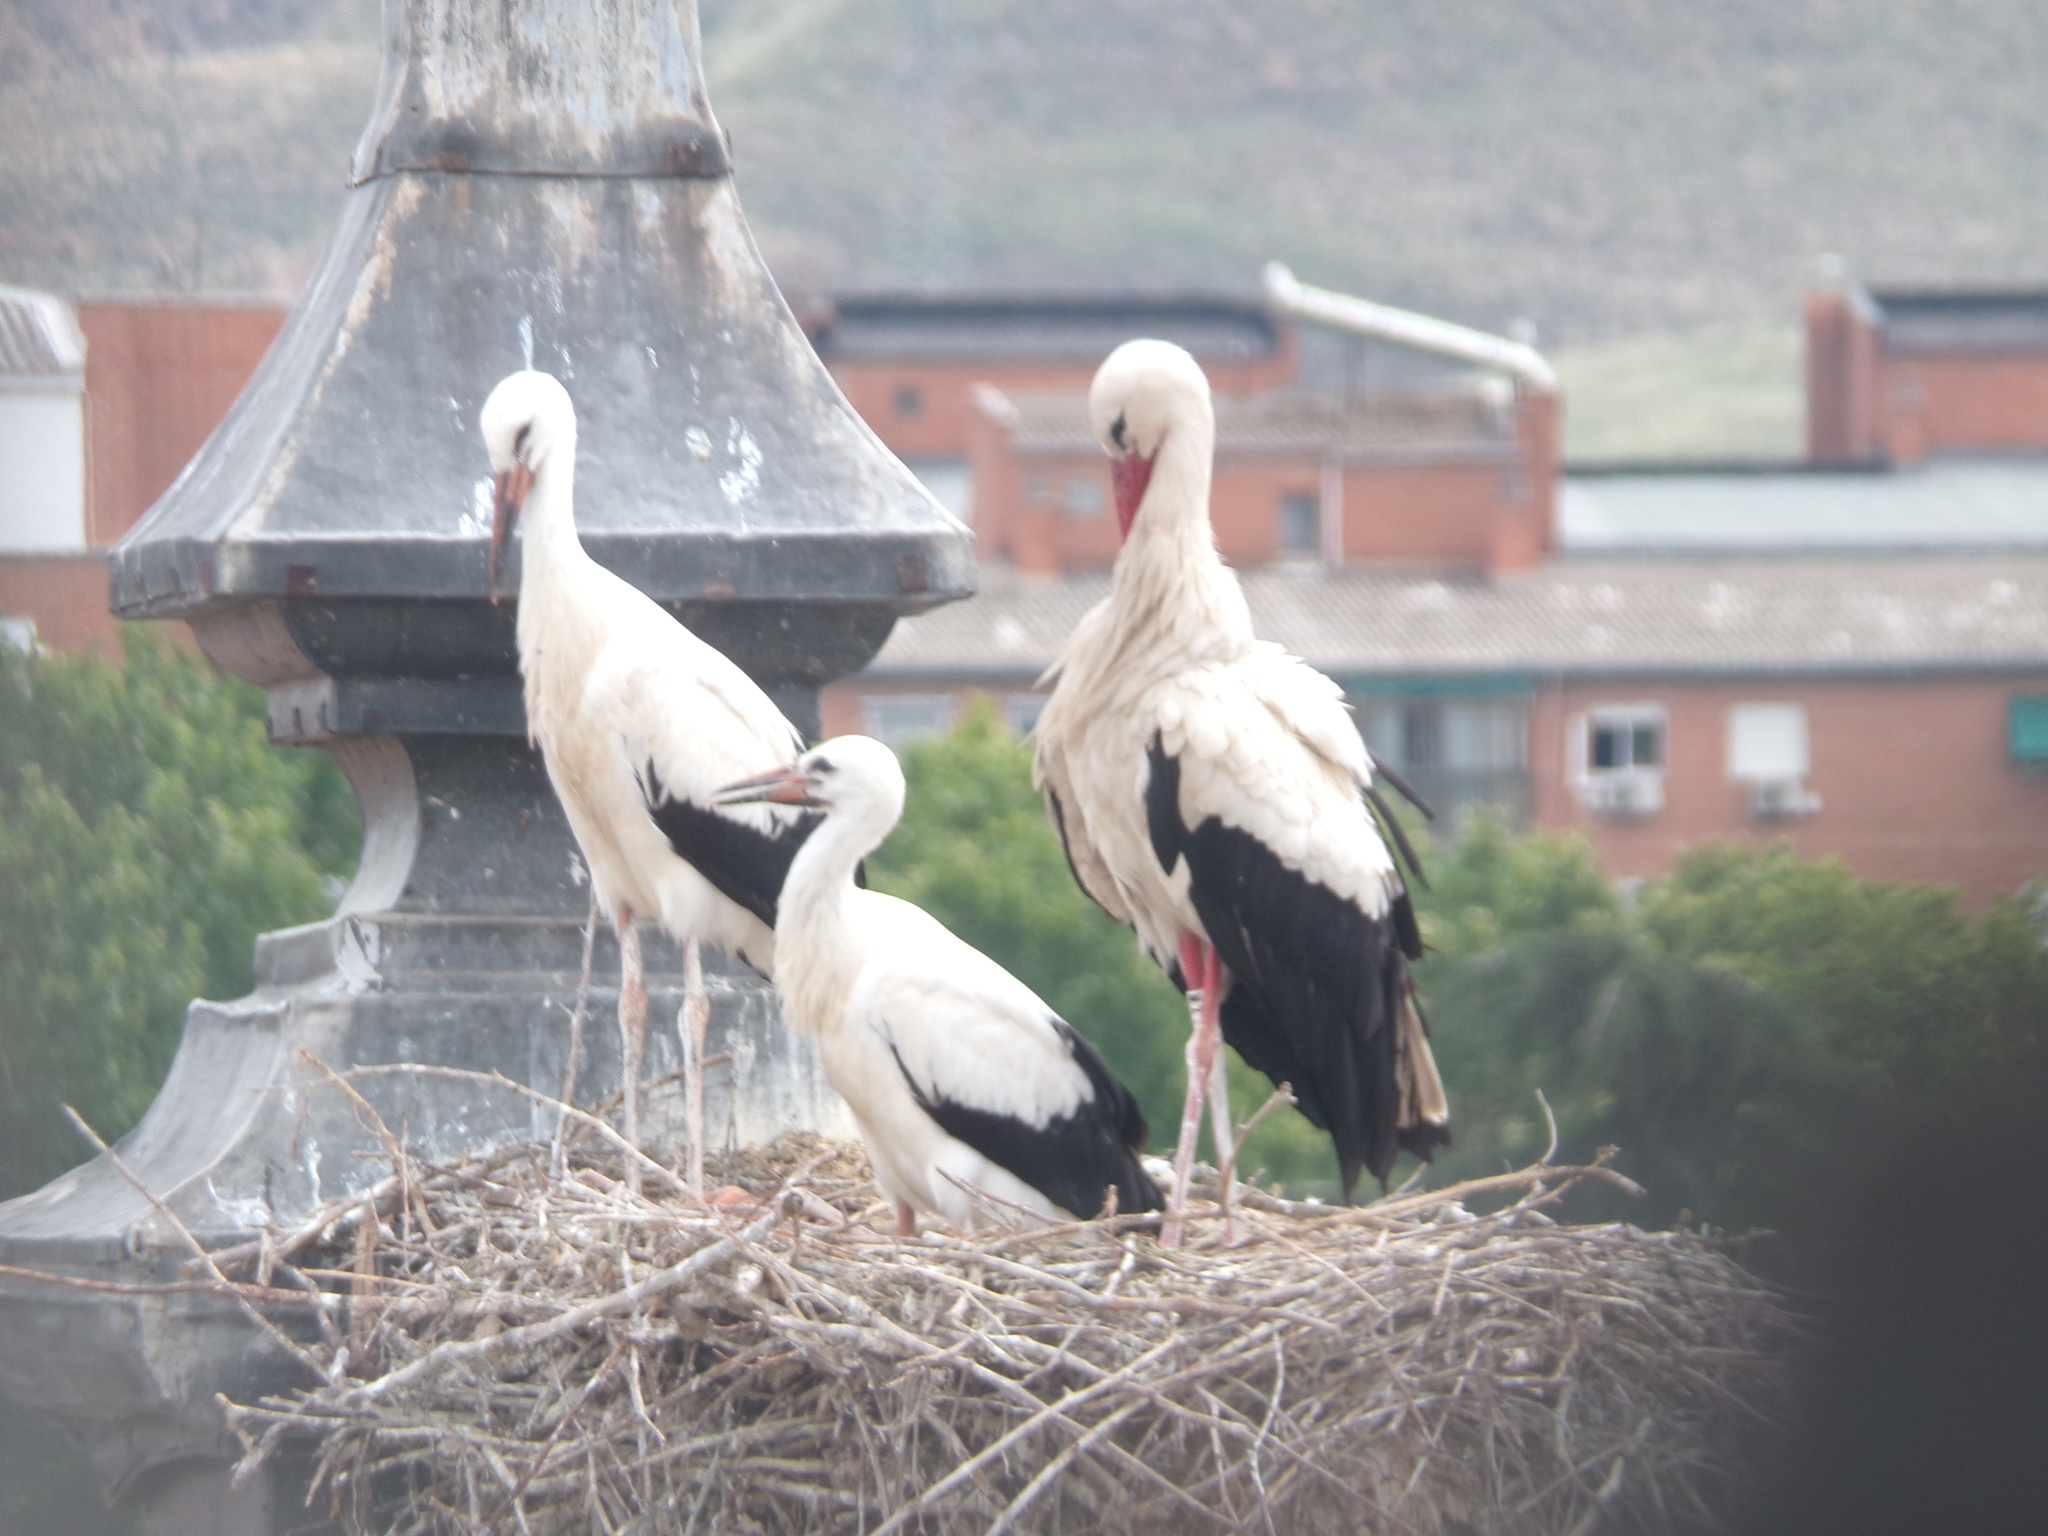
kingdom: Animalia
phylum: Chordata
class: Aves
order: Ciconiiformes
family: Ciconiidae
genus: Ciconia
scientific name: Ciconia ciconia
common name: White stork
